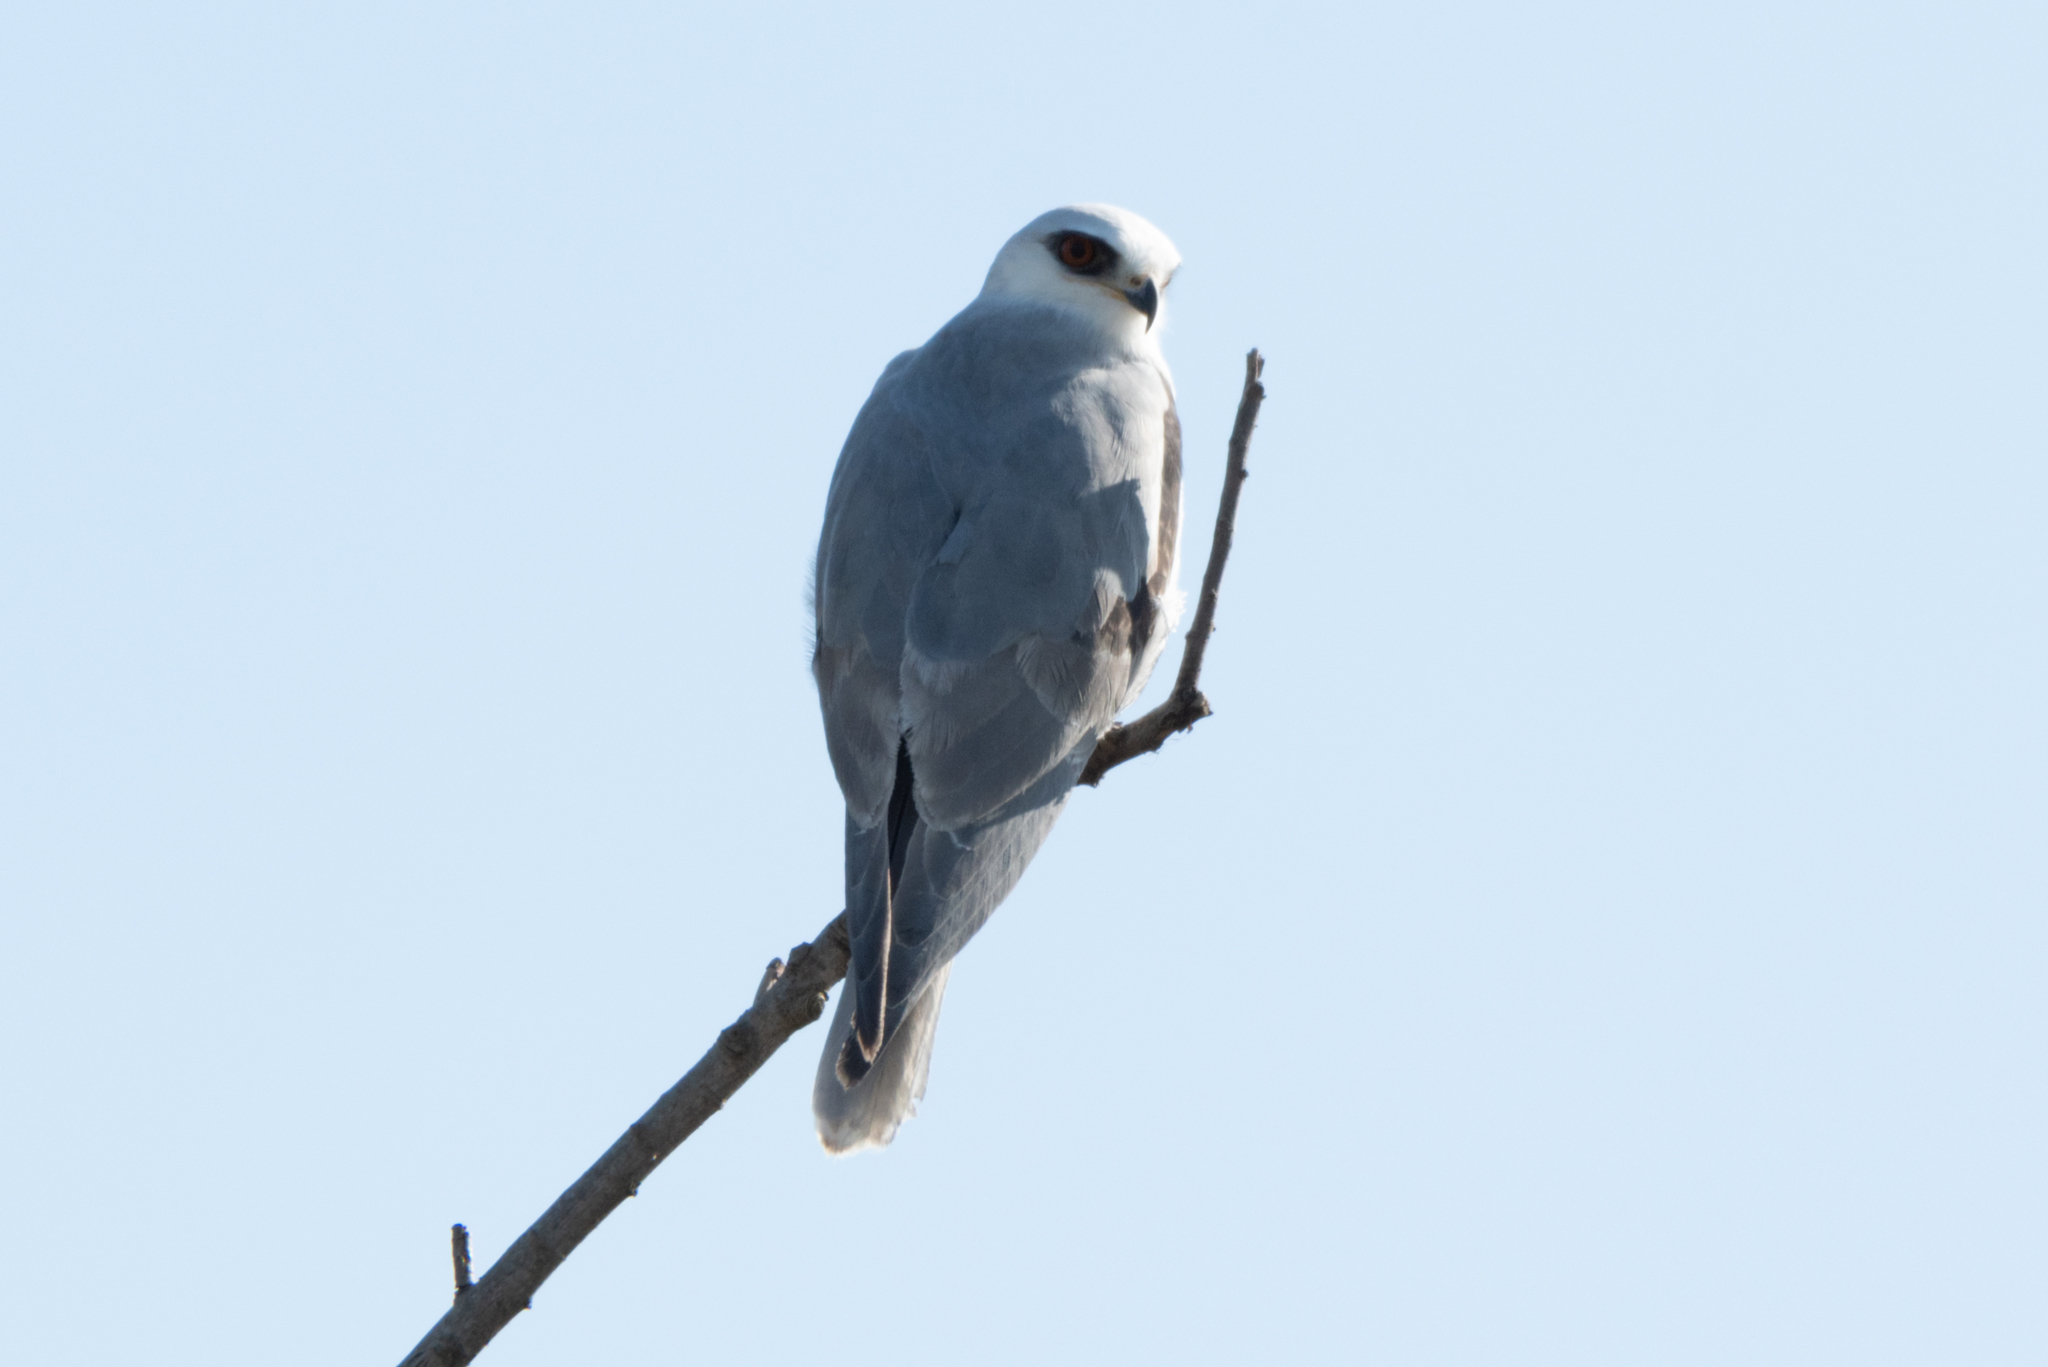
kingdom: Animalia
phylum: Chordata
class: Aves
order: Accipitriformes
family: Accipitridae
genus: Elanus
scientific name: Elanus leucurus
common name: White-tailed kite
